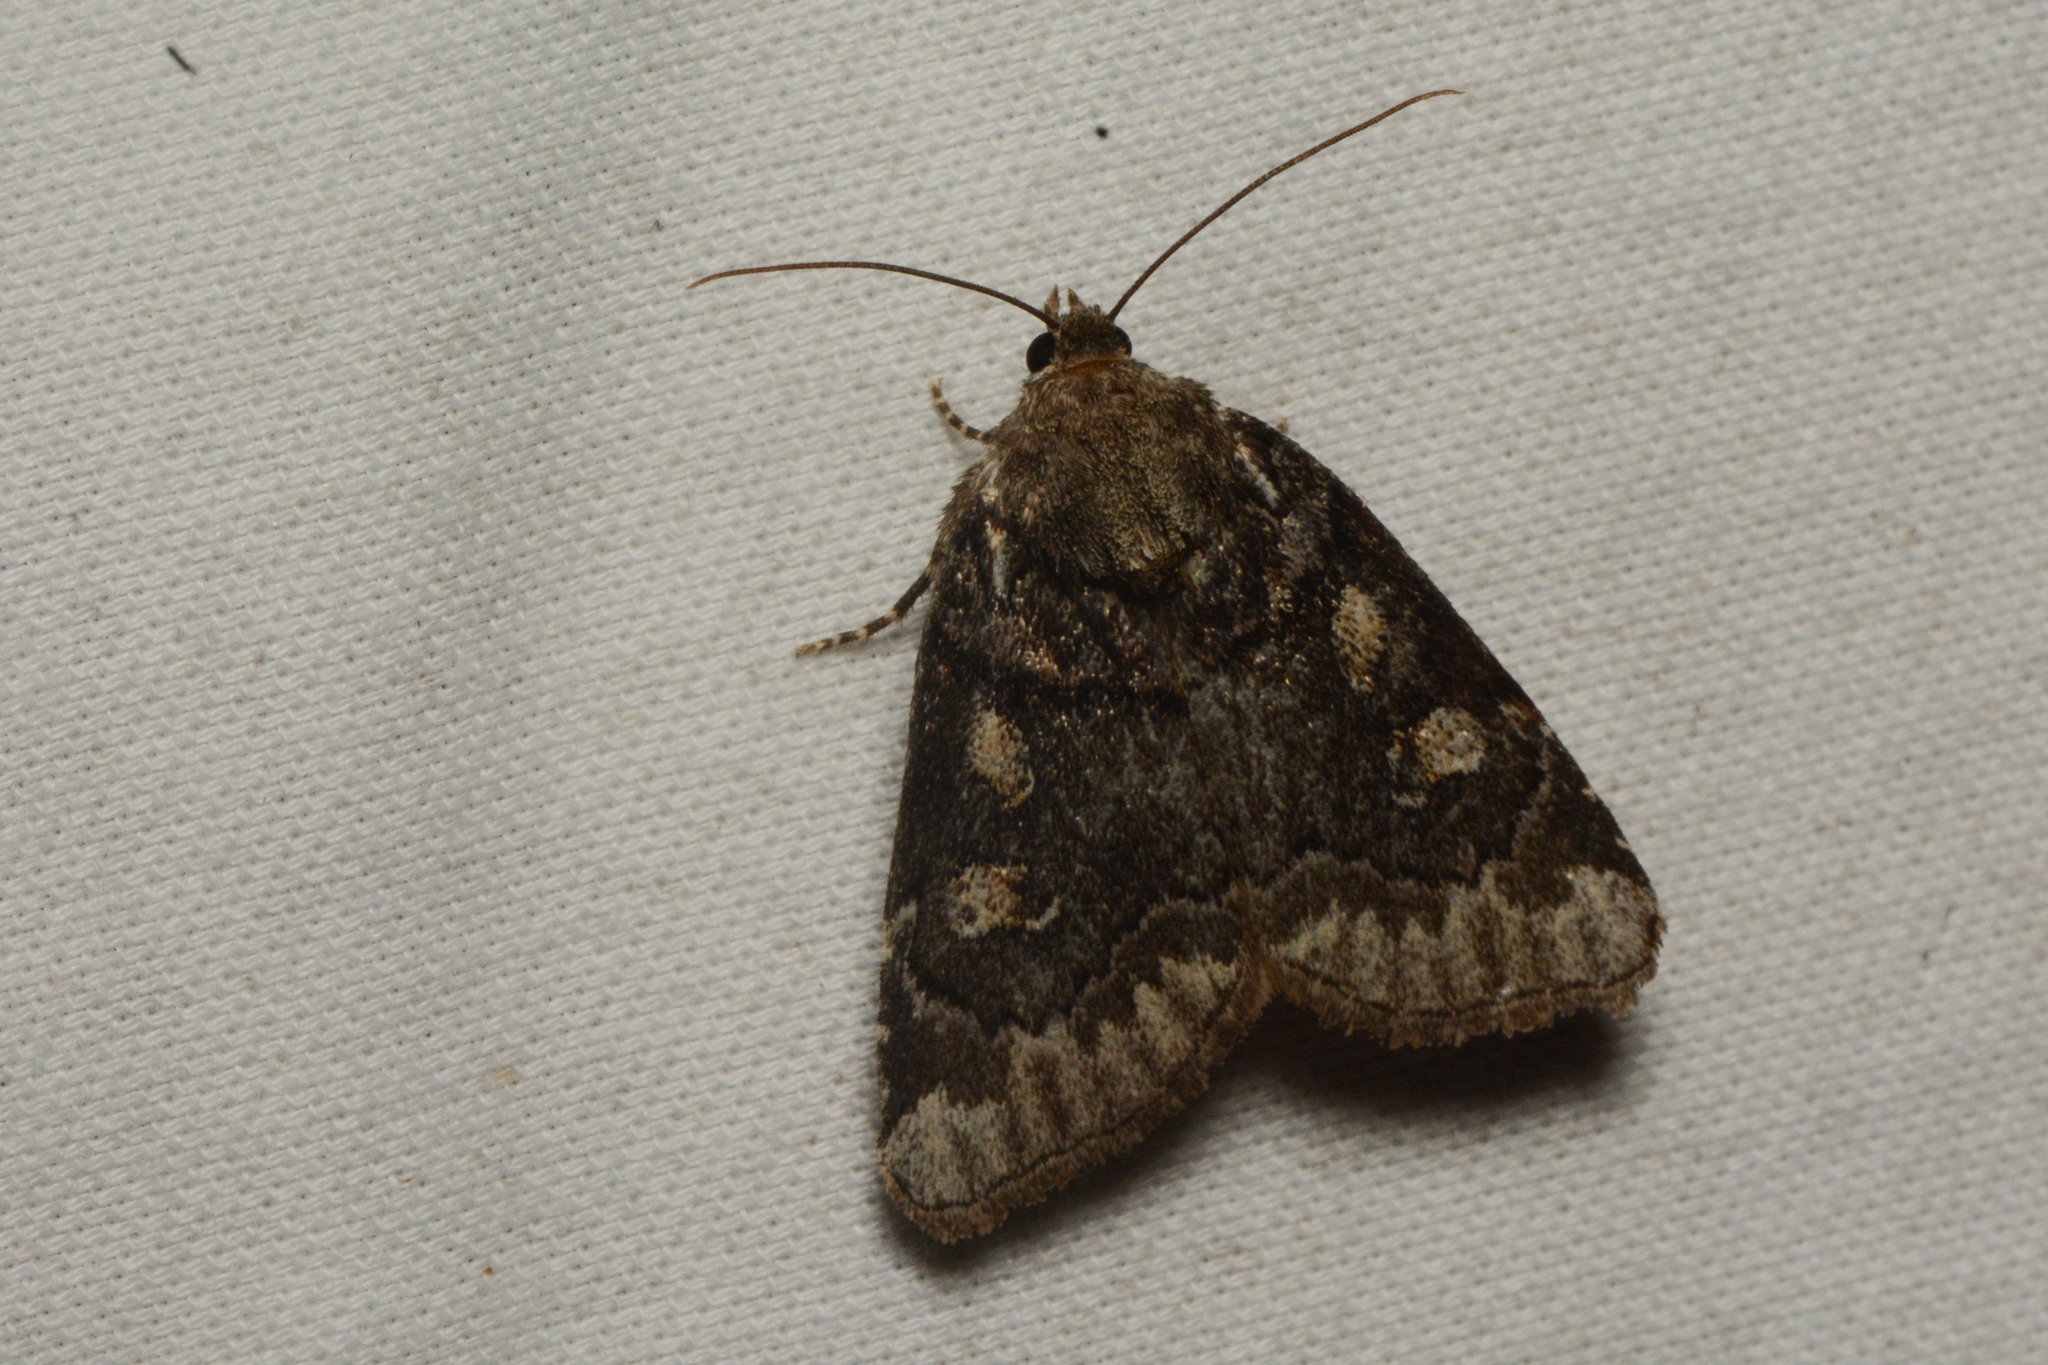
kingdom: Animalia
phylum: Arthropoda
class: Insecta
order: Lepidoptera
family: Noctuidae
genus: Cosmia
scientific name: Cosmia praeacuta
